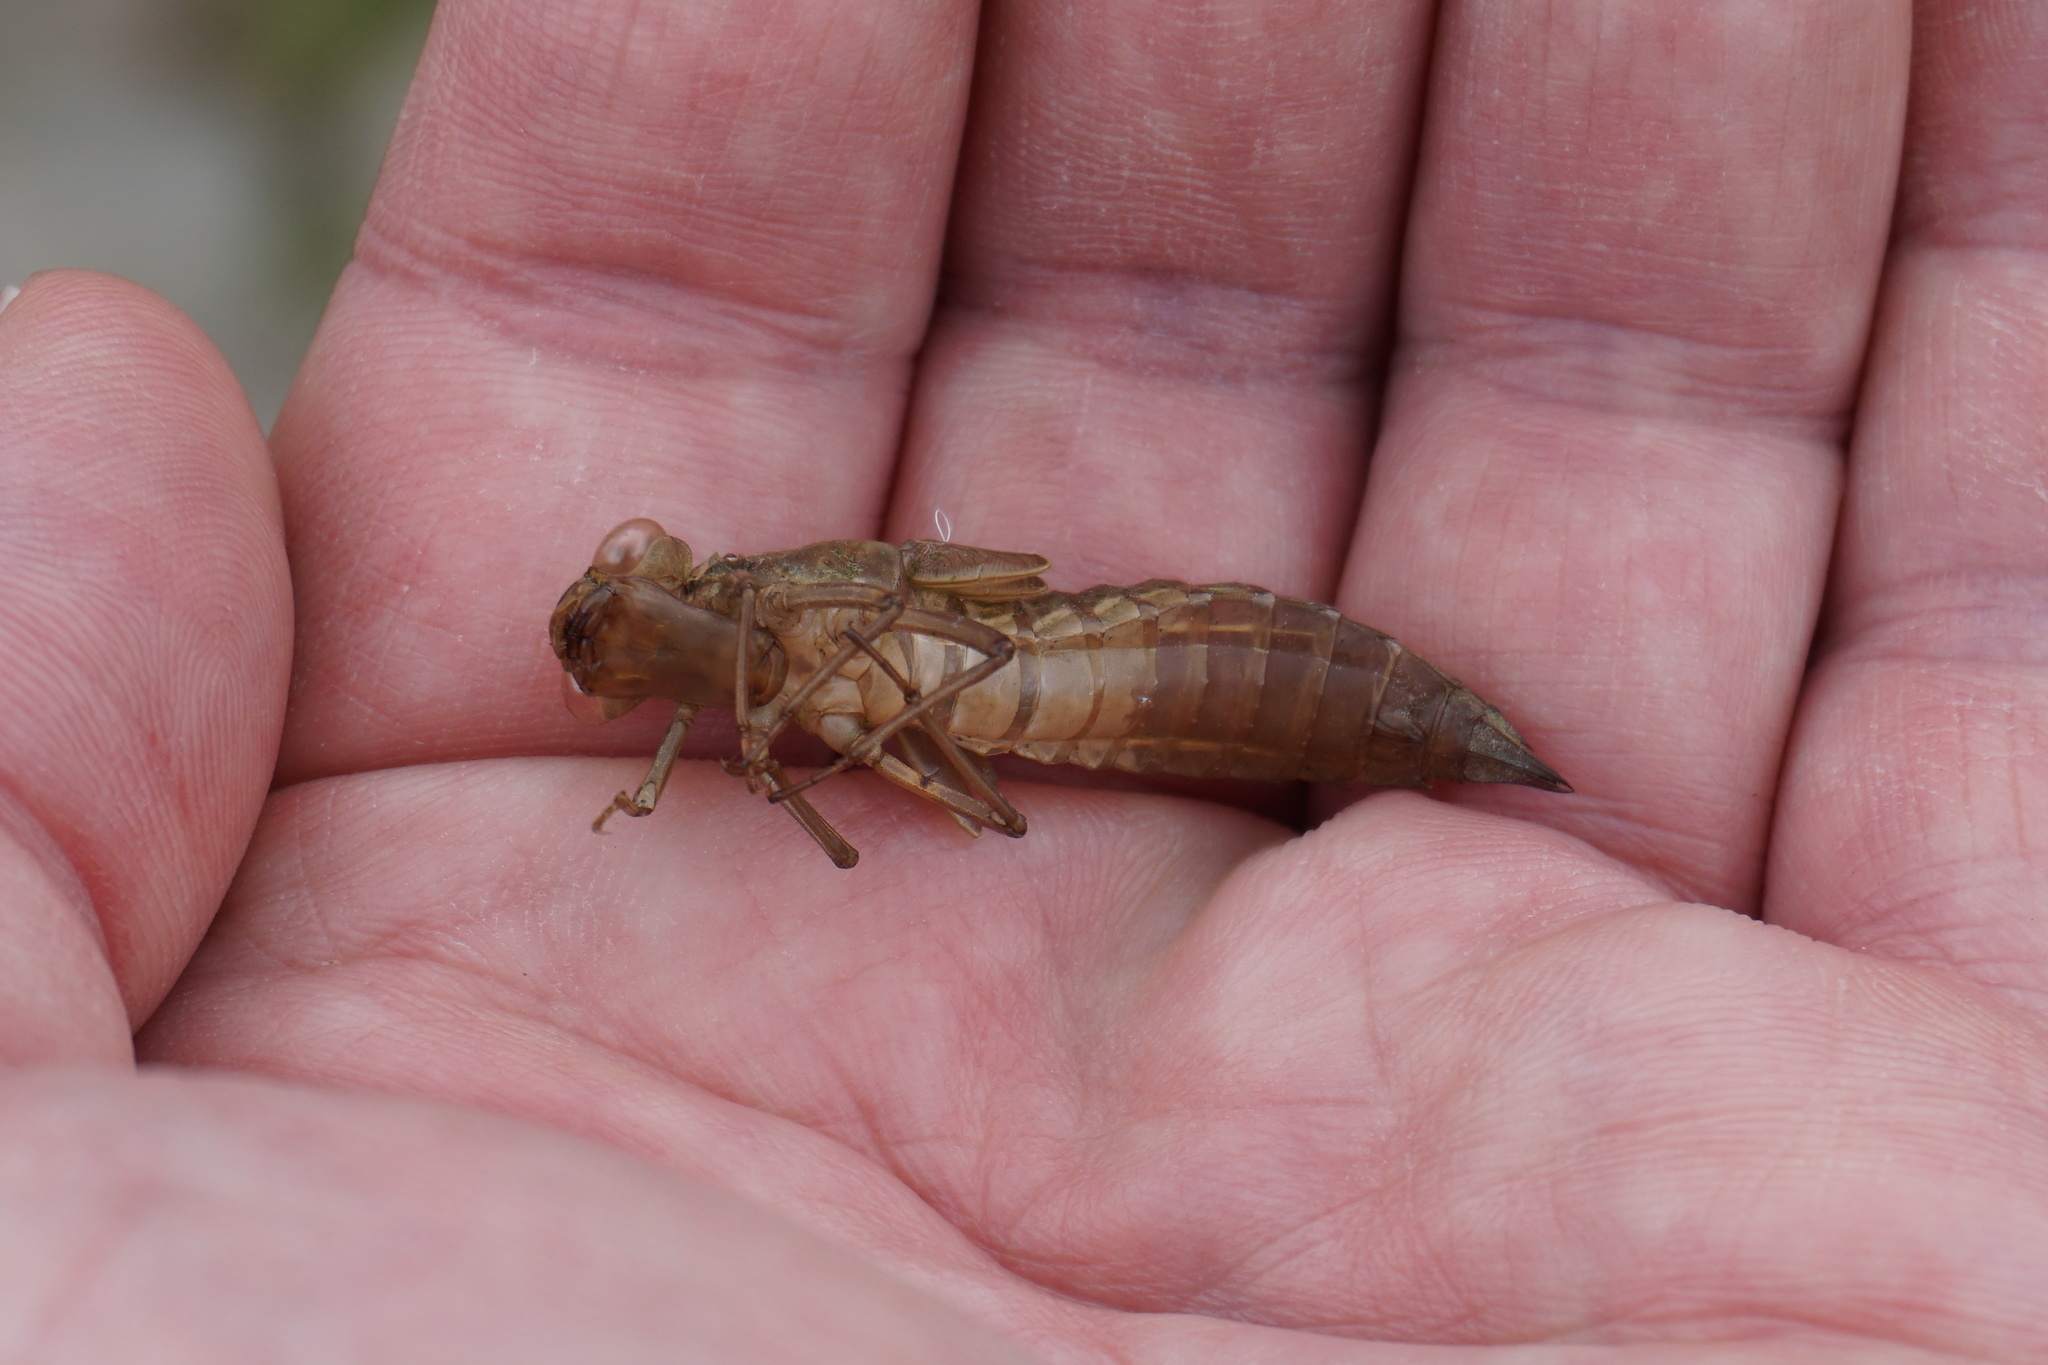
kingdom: Animalia
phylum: Arthropoda
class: Insecta
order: Odonata
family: Aeshnidae
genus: Aeshna
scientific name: Aeshna juncea
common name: Moorland hawker
